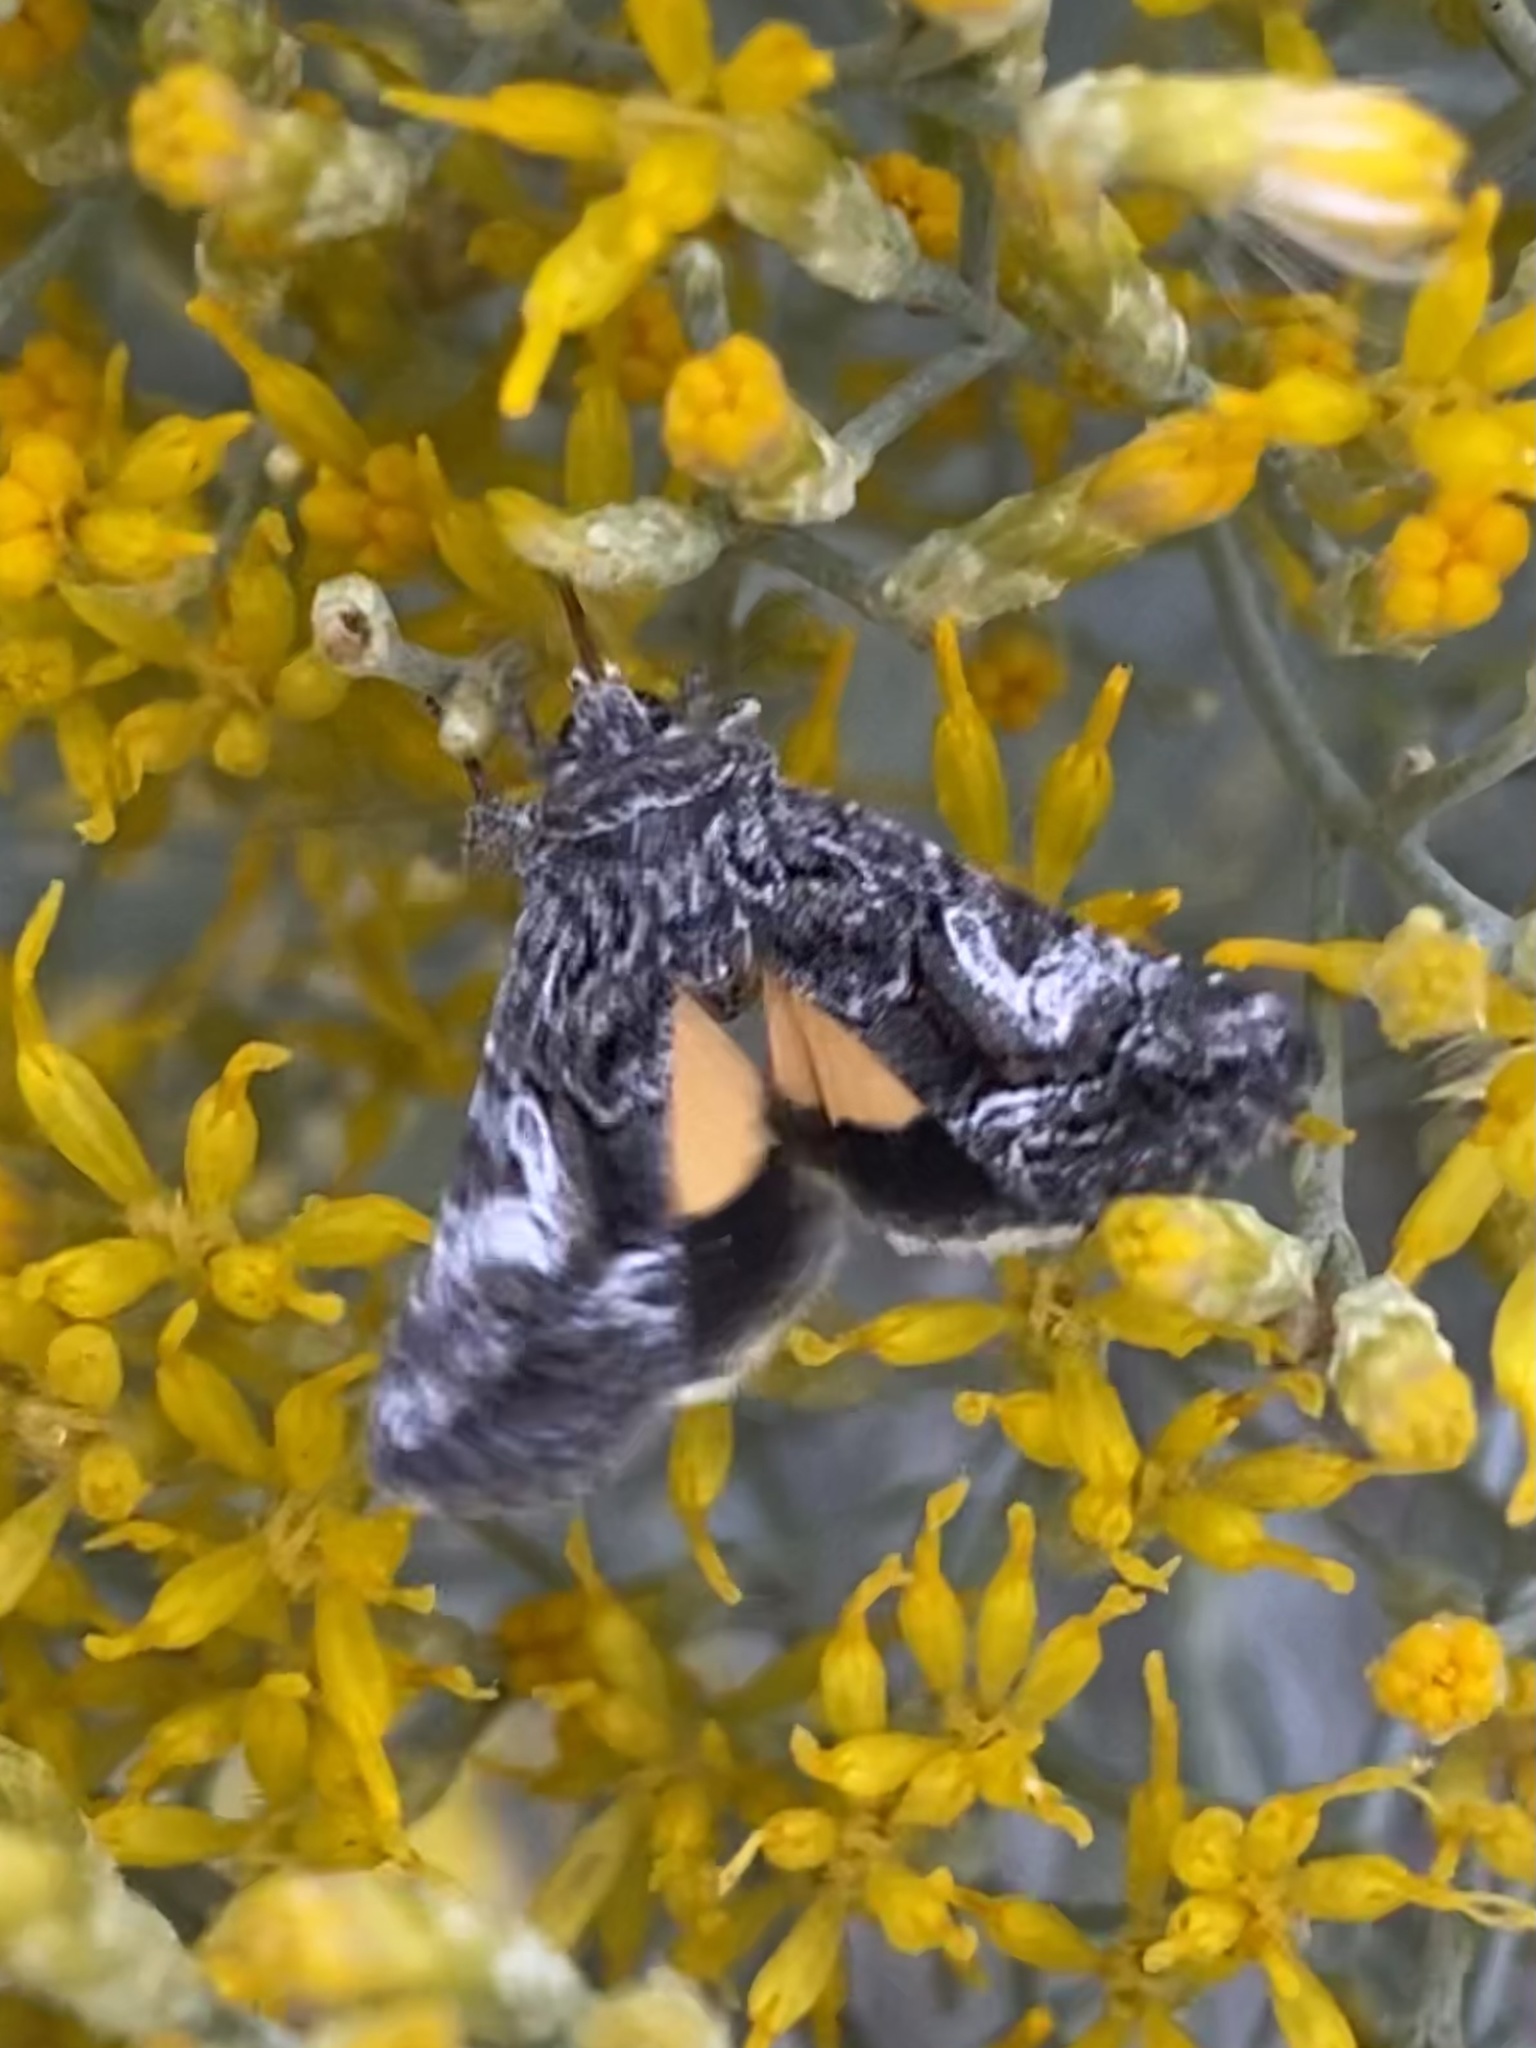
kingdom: Animalia
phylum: Arthropoda
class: Insecta
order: Lepidoptera
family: Noctuidae
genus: Pseudanarta
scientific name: Pseudanarta crocea
